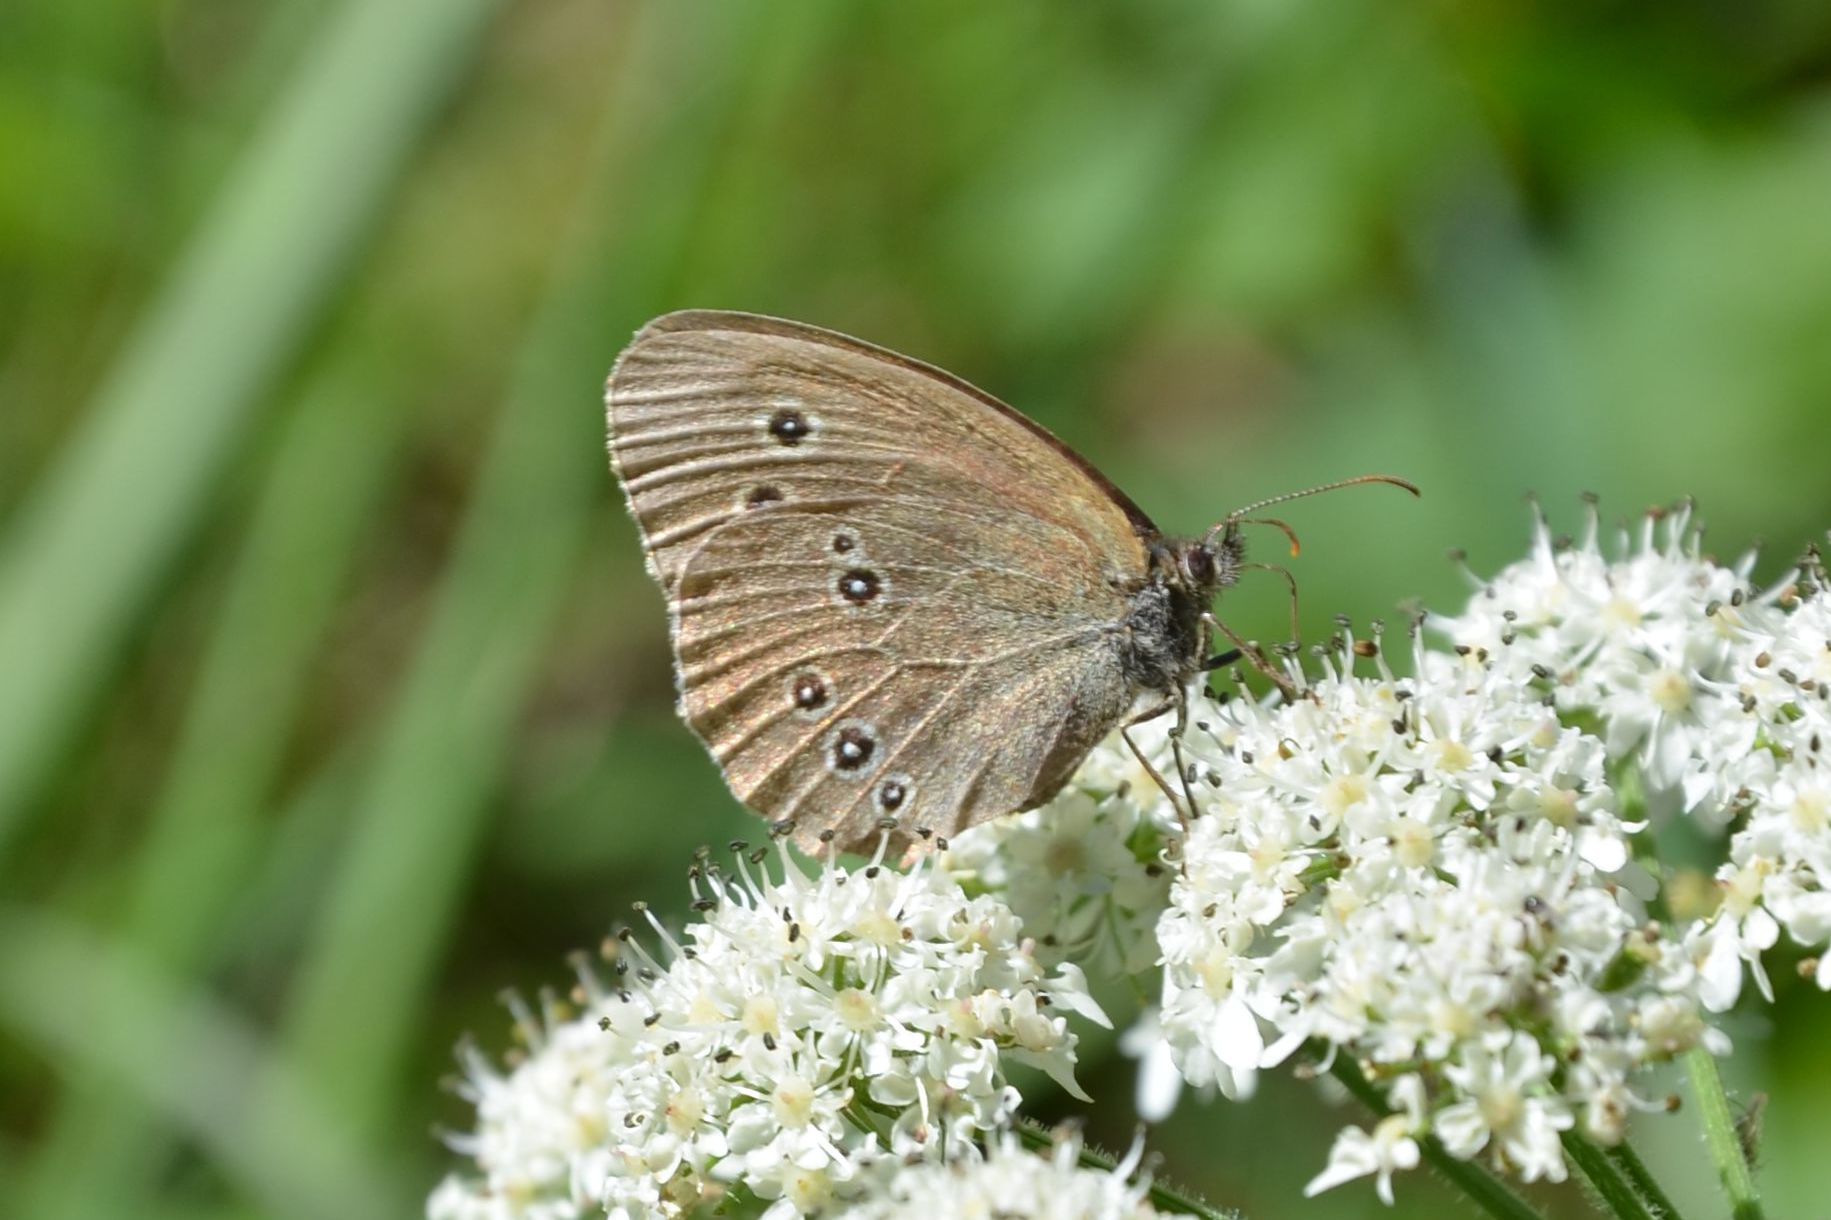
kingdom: Animalia
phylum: Arthropoda
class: Insecta
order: Lepidoptera
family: Nymphalidae
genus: Aphantopus
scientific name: Aphantopus hyperantus
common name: Ringlet
